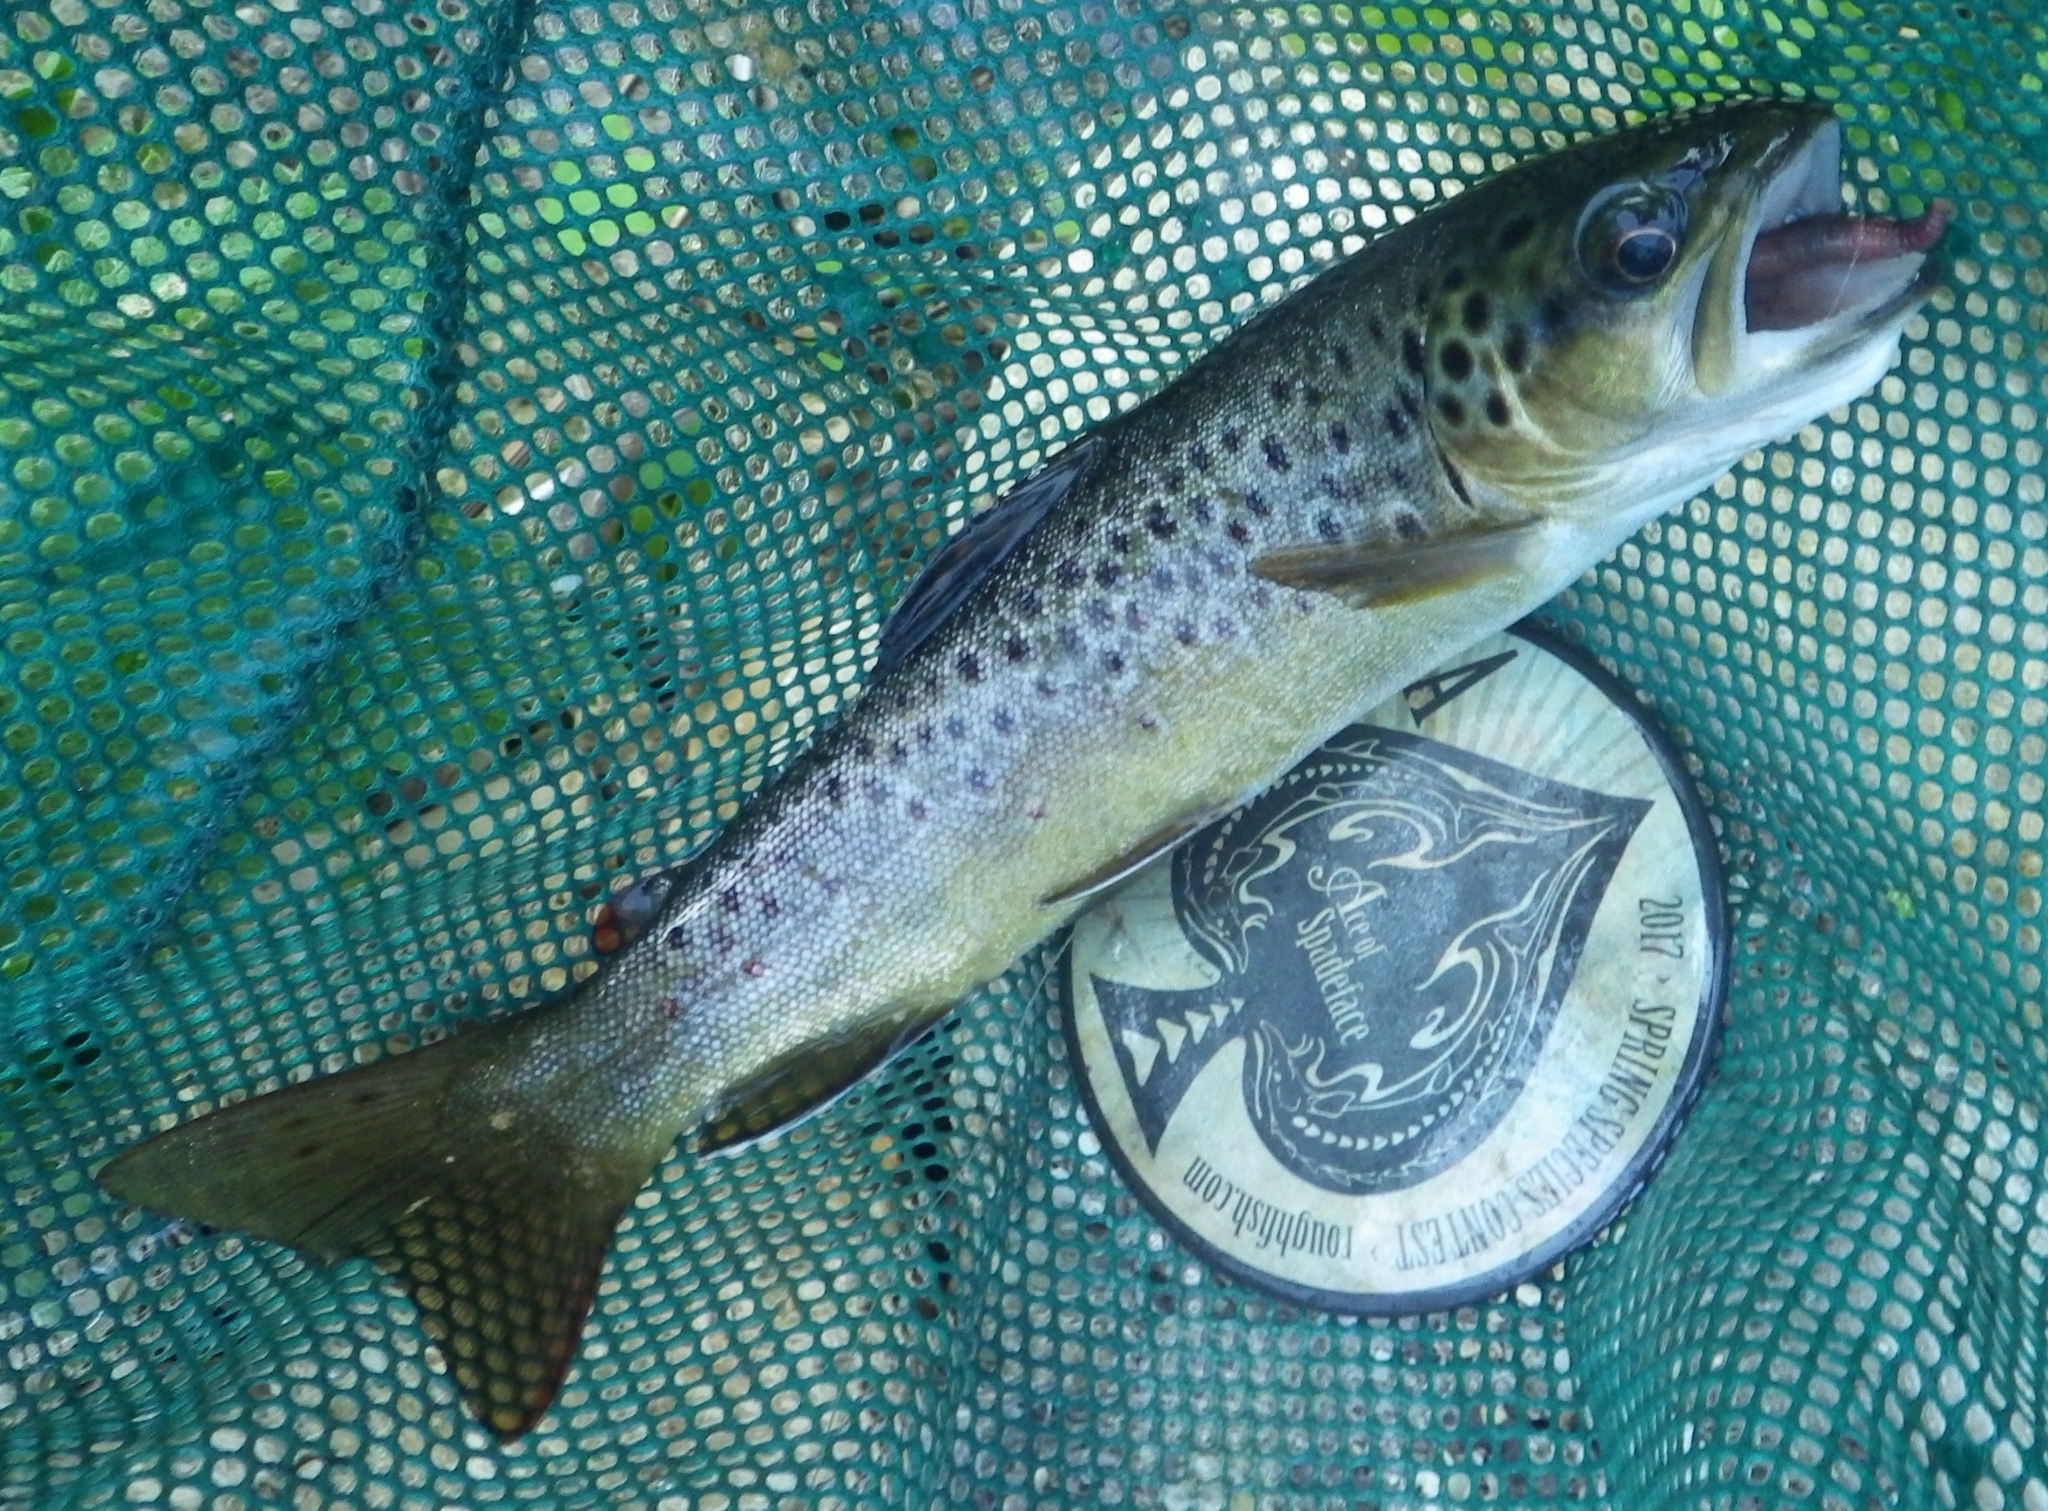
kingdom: Animalia
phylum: Chordata
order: Salmoniformes
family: Salmonidae
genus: Salmo
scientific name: Salmo trutta
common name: Brown trout
